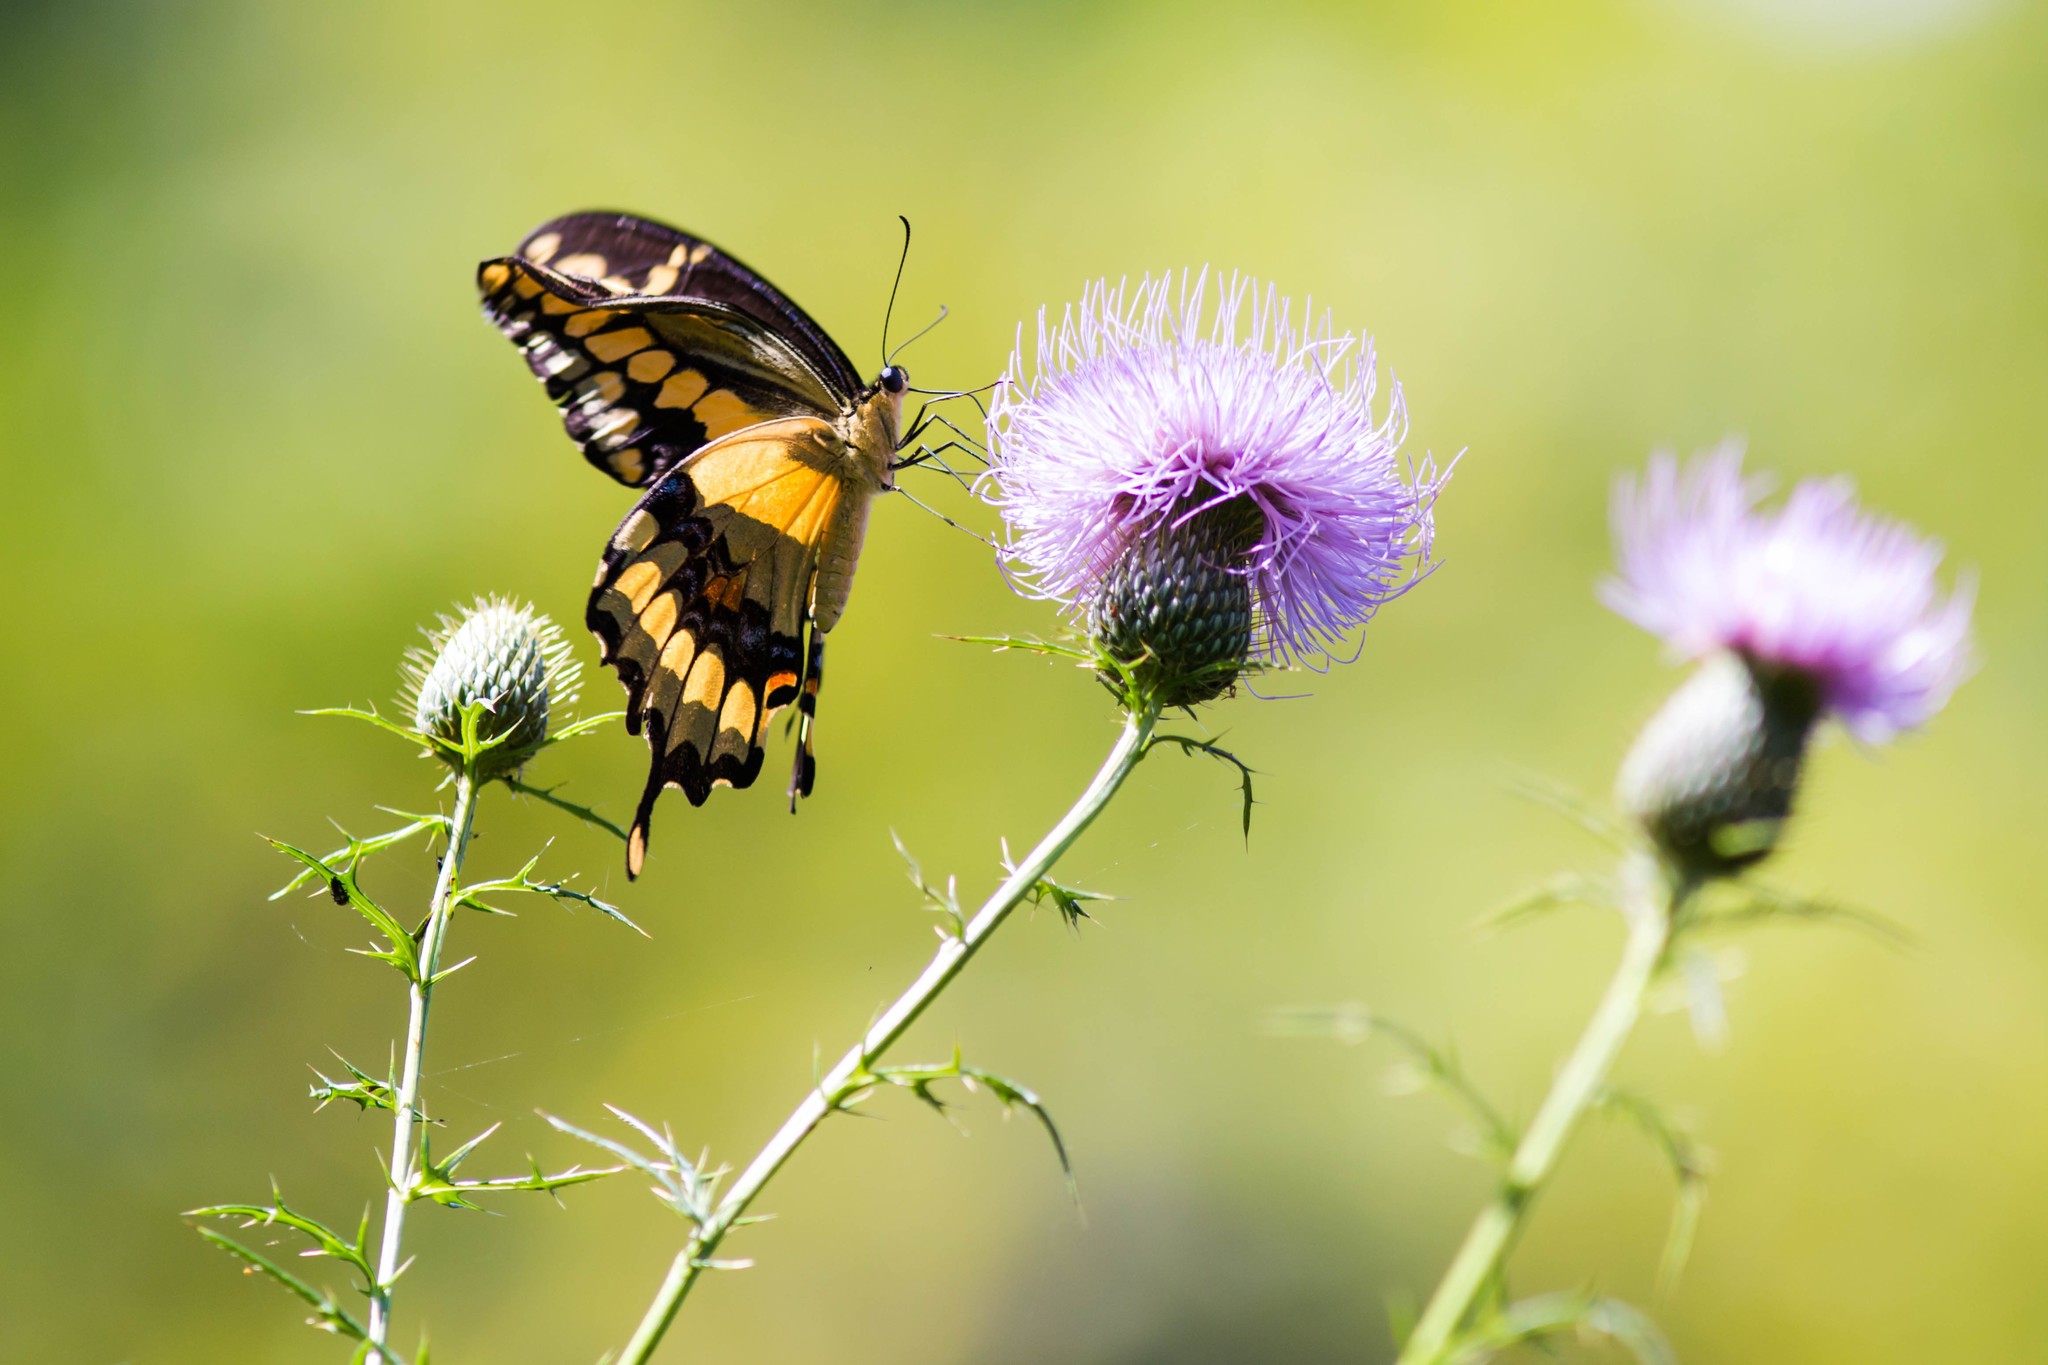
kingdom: Animalia
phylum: Arthropoda
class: Insecta
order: Lepidoptera
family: Papilionidae
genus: Papilio
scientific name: Papilio cresphontes
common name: Giant swallowtail
